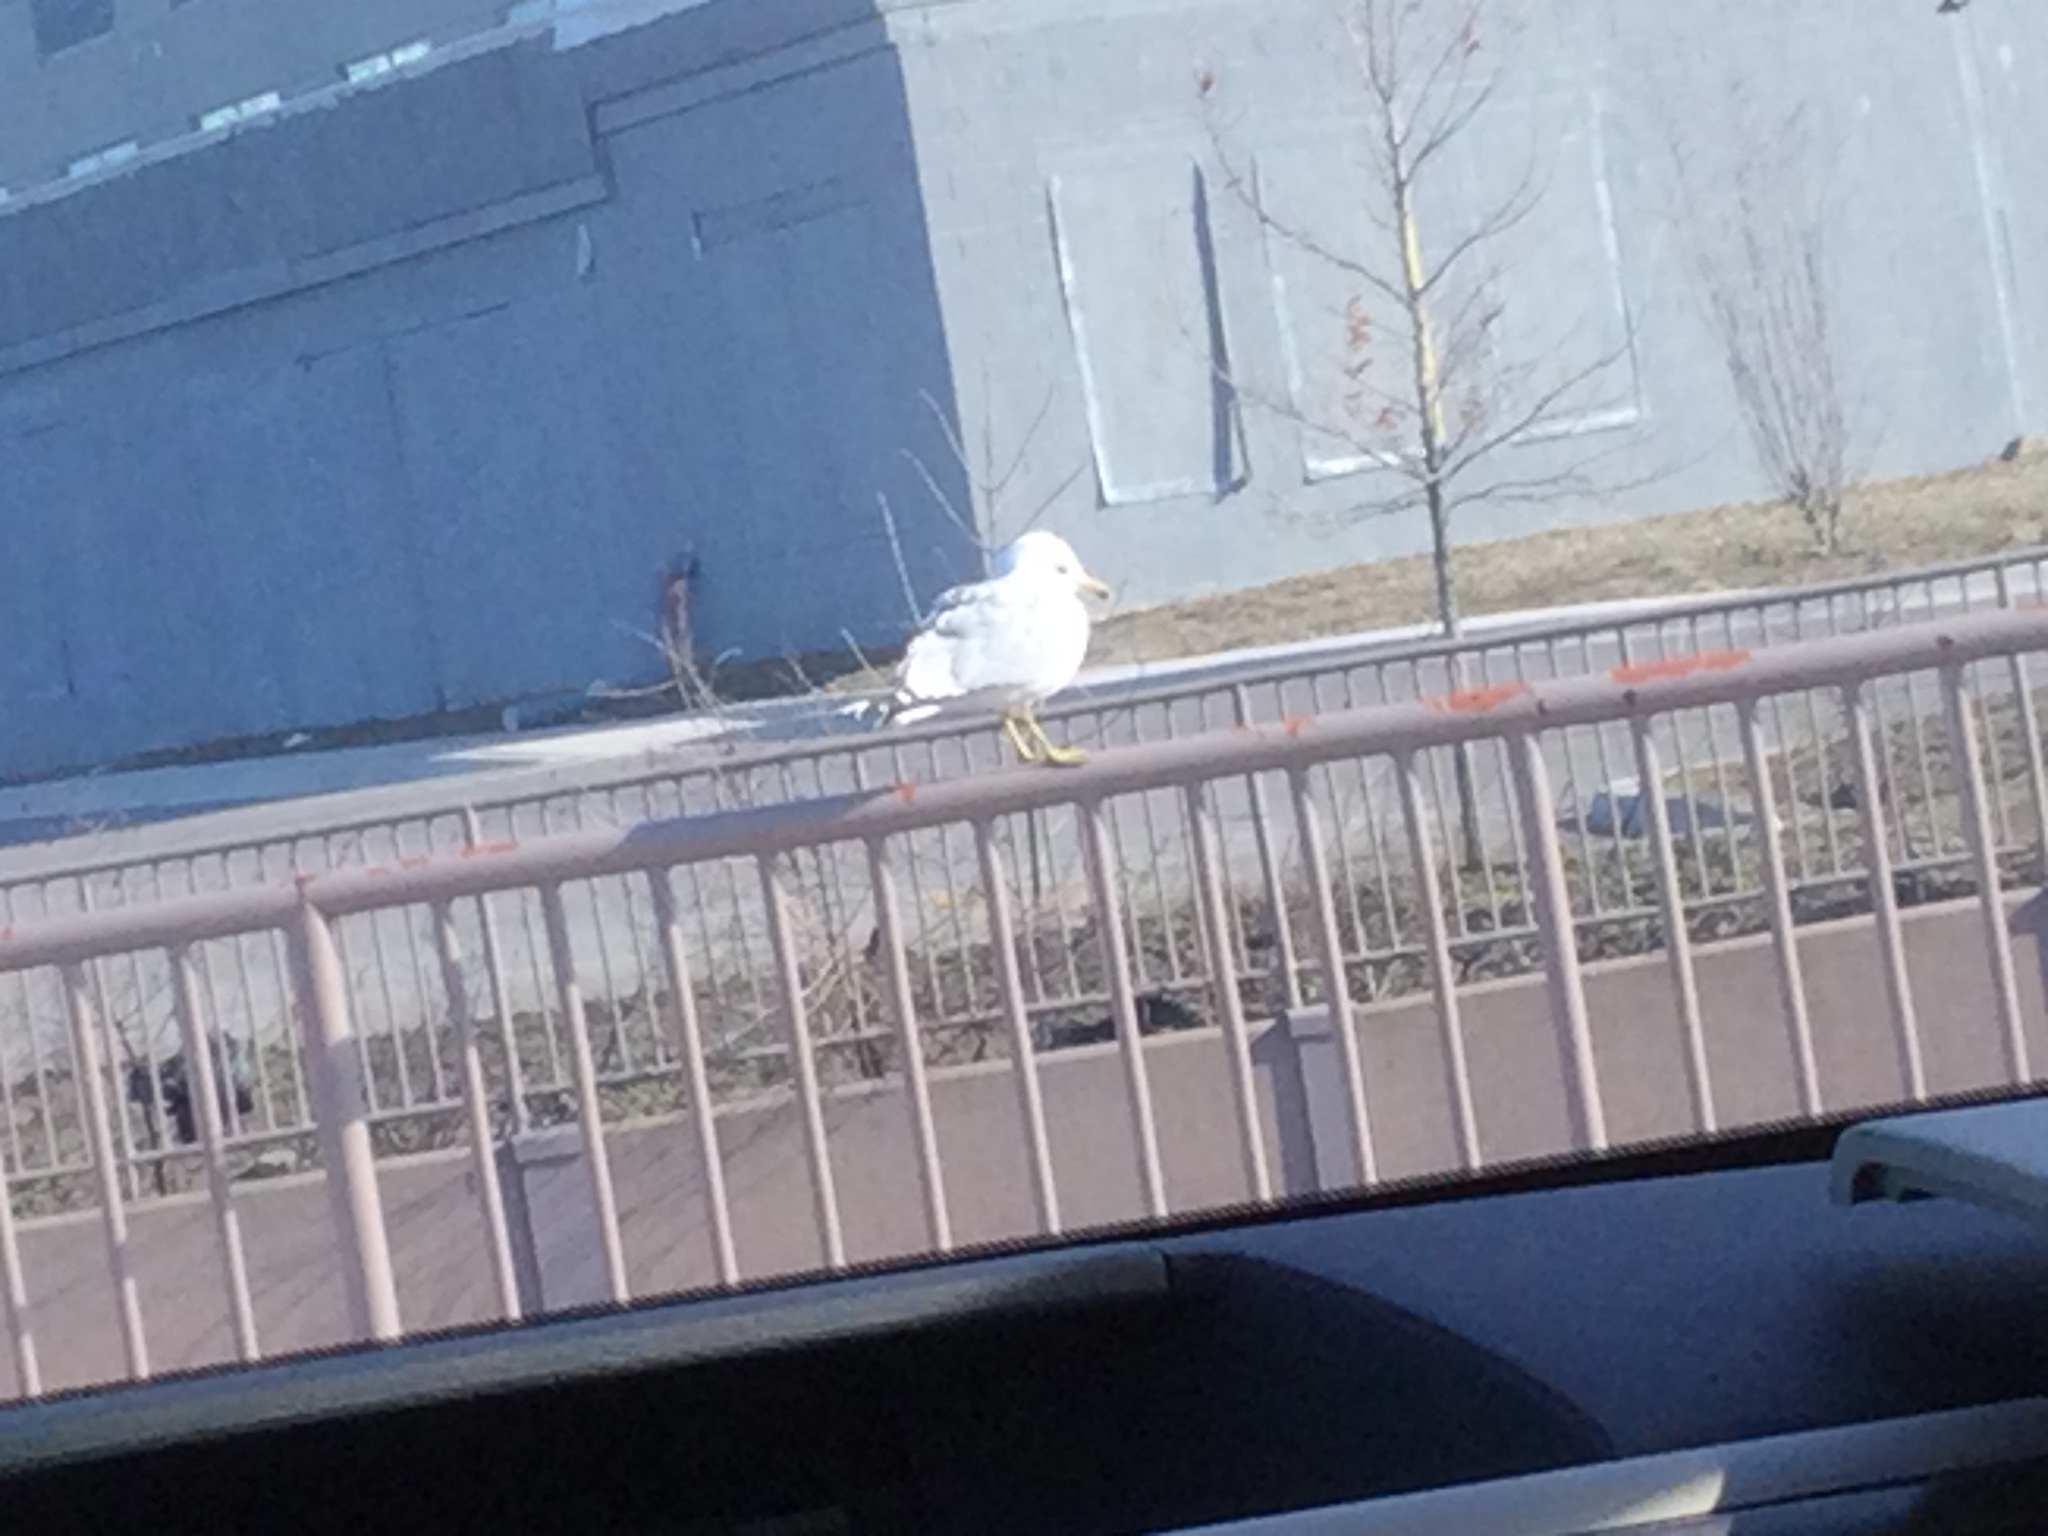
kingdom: Animalia
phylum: Chordata
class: Aves
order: Charadriiformes
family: Laridae
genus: Larus
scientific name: Larus delawarensis
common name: Ring-billed gull
